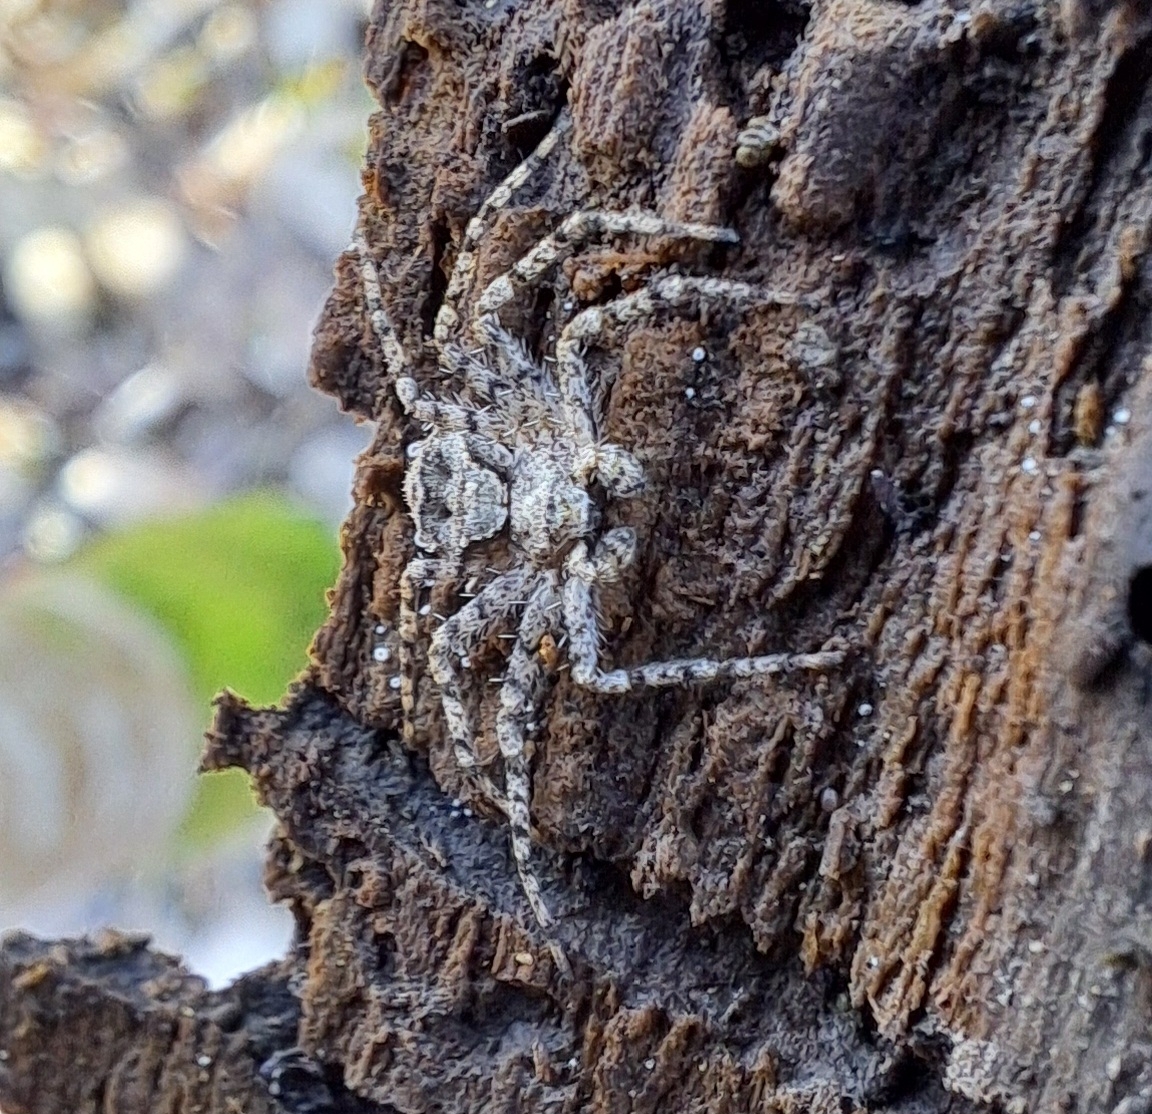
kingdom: Animalia
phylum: Arthropoda
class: Arachnida
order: Araneae
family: Philodromidae
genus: Philodromus
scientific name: Philodromus poecilus
